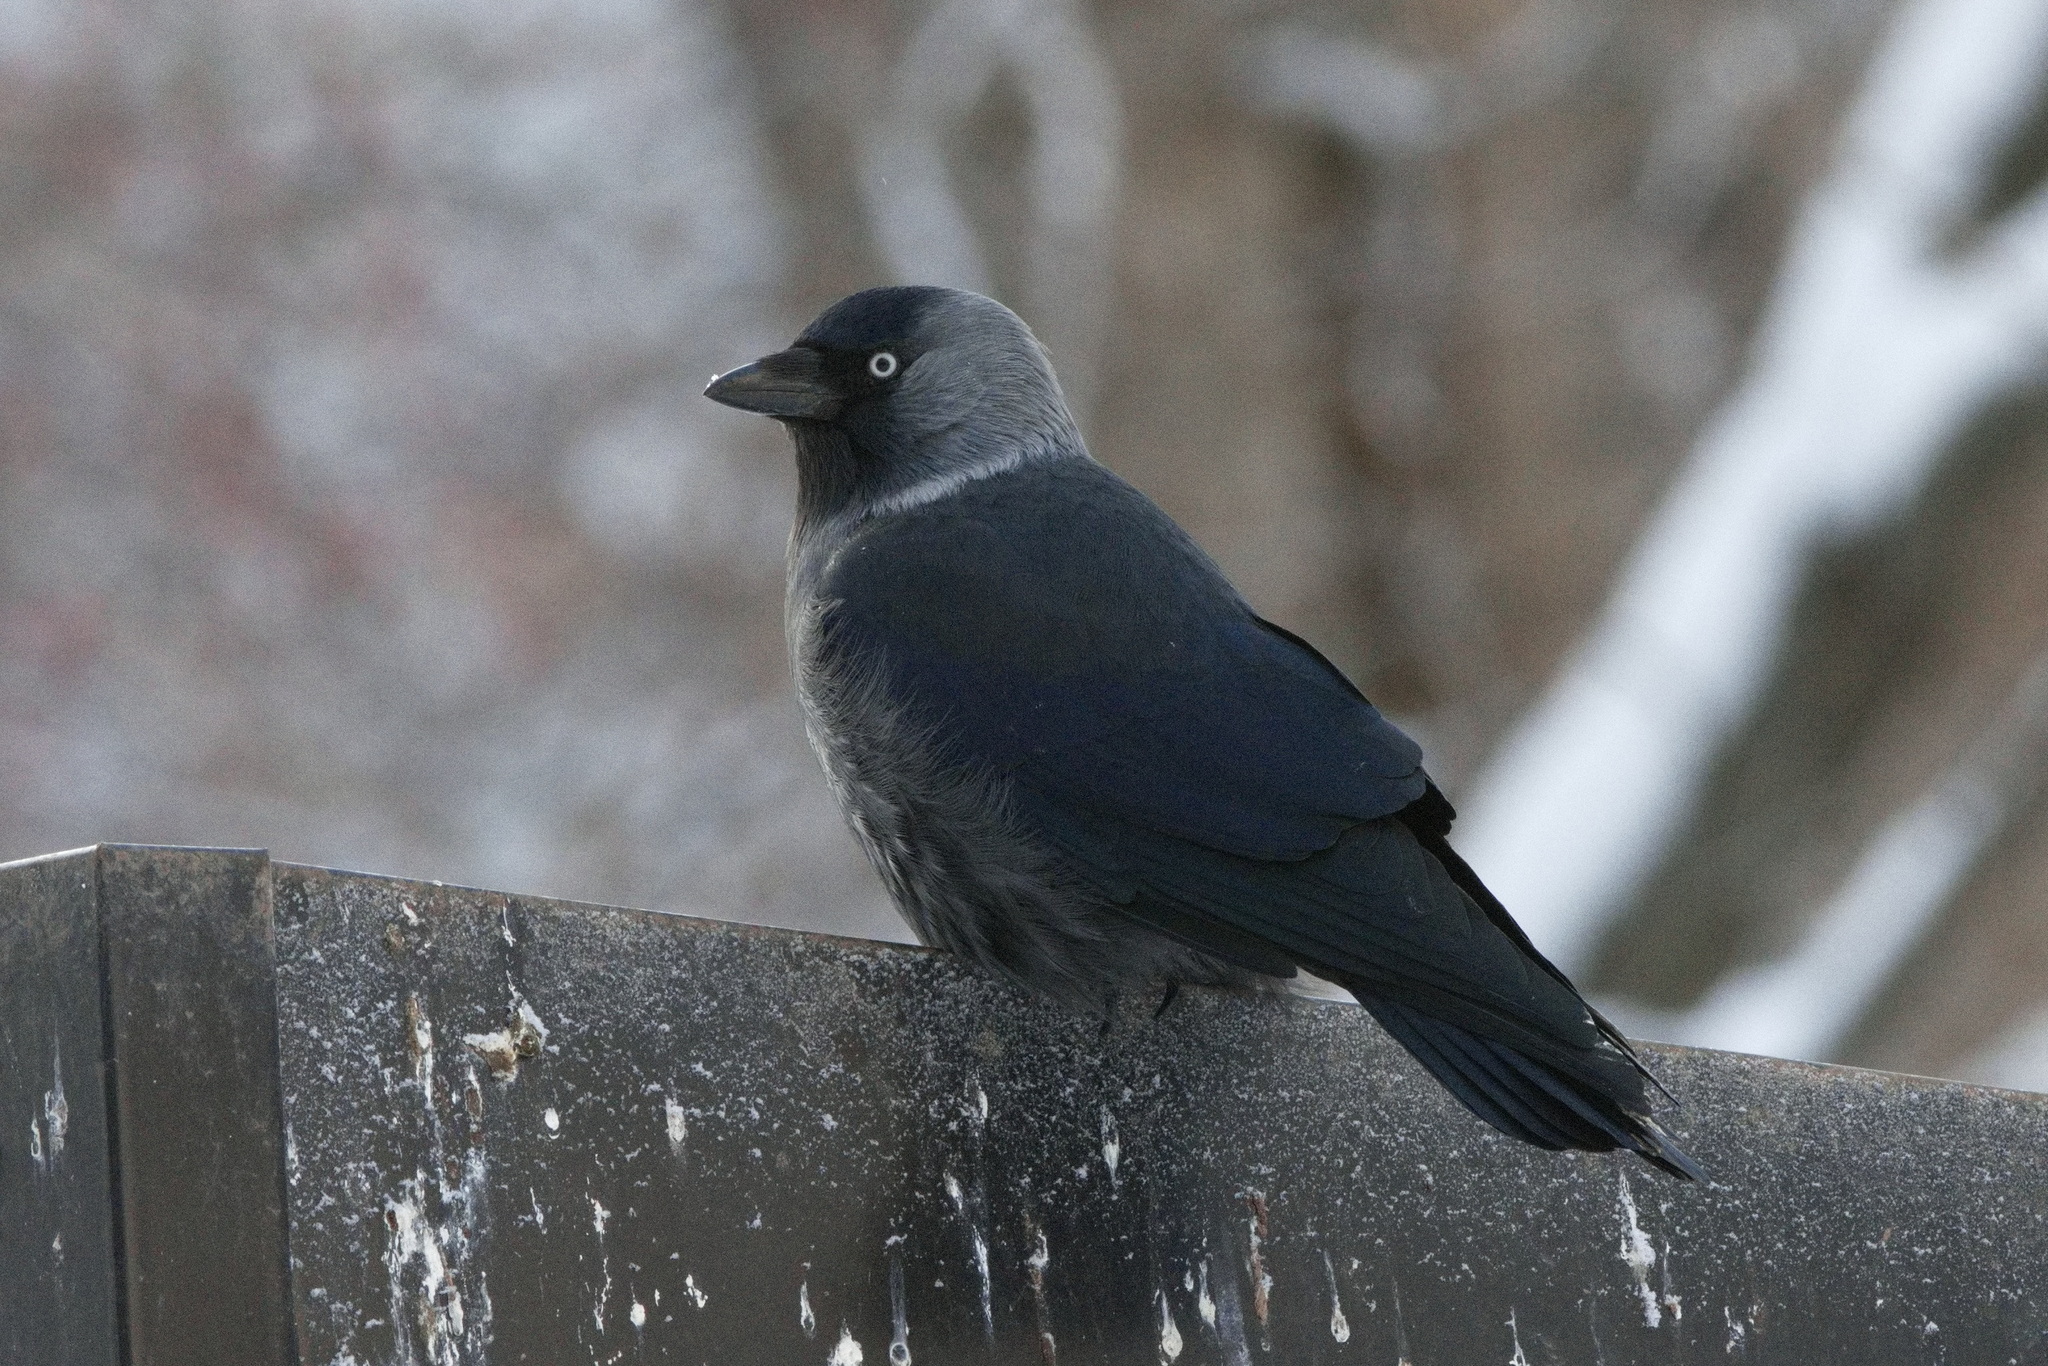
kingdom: Animalia
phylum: Chordata
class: Aves
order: Passeriformes
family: Corvidae
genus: Coloeus
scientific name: Coloeus monedula
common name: Western jackdaw
